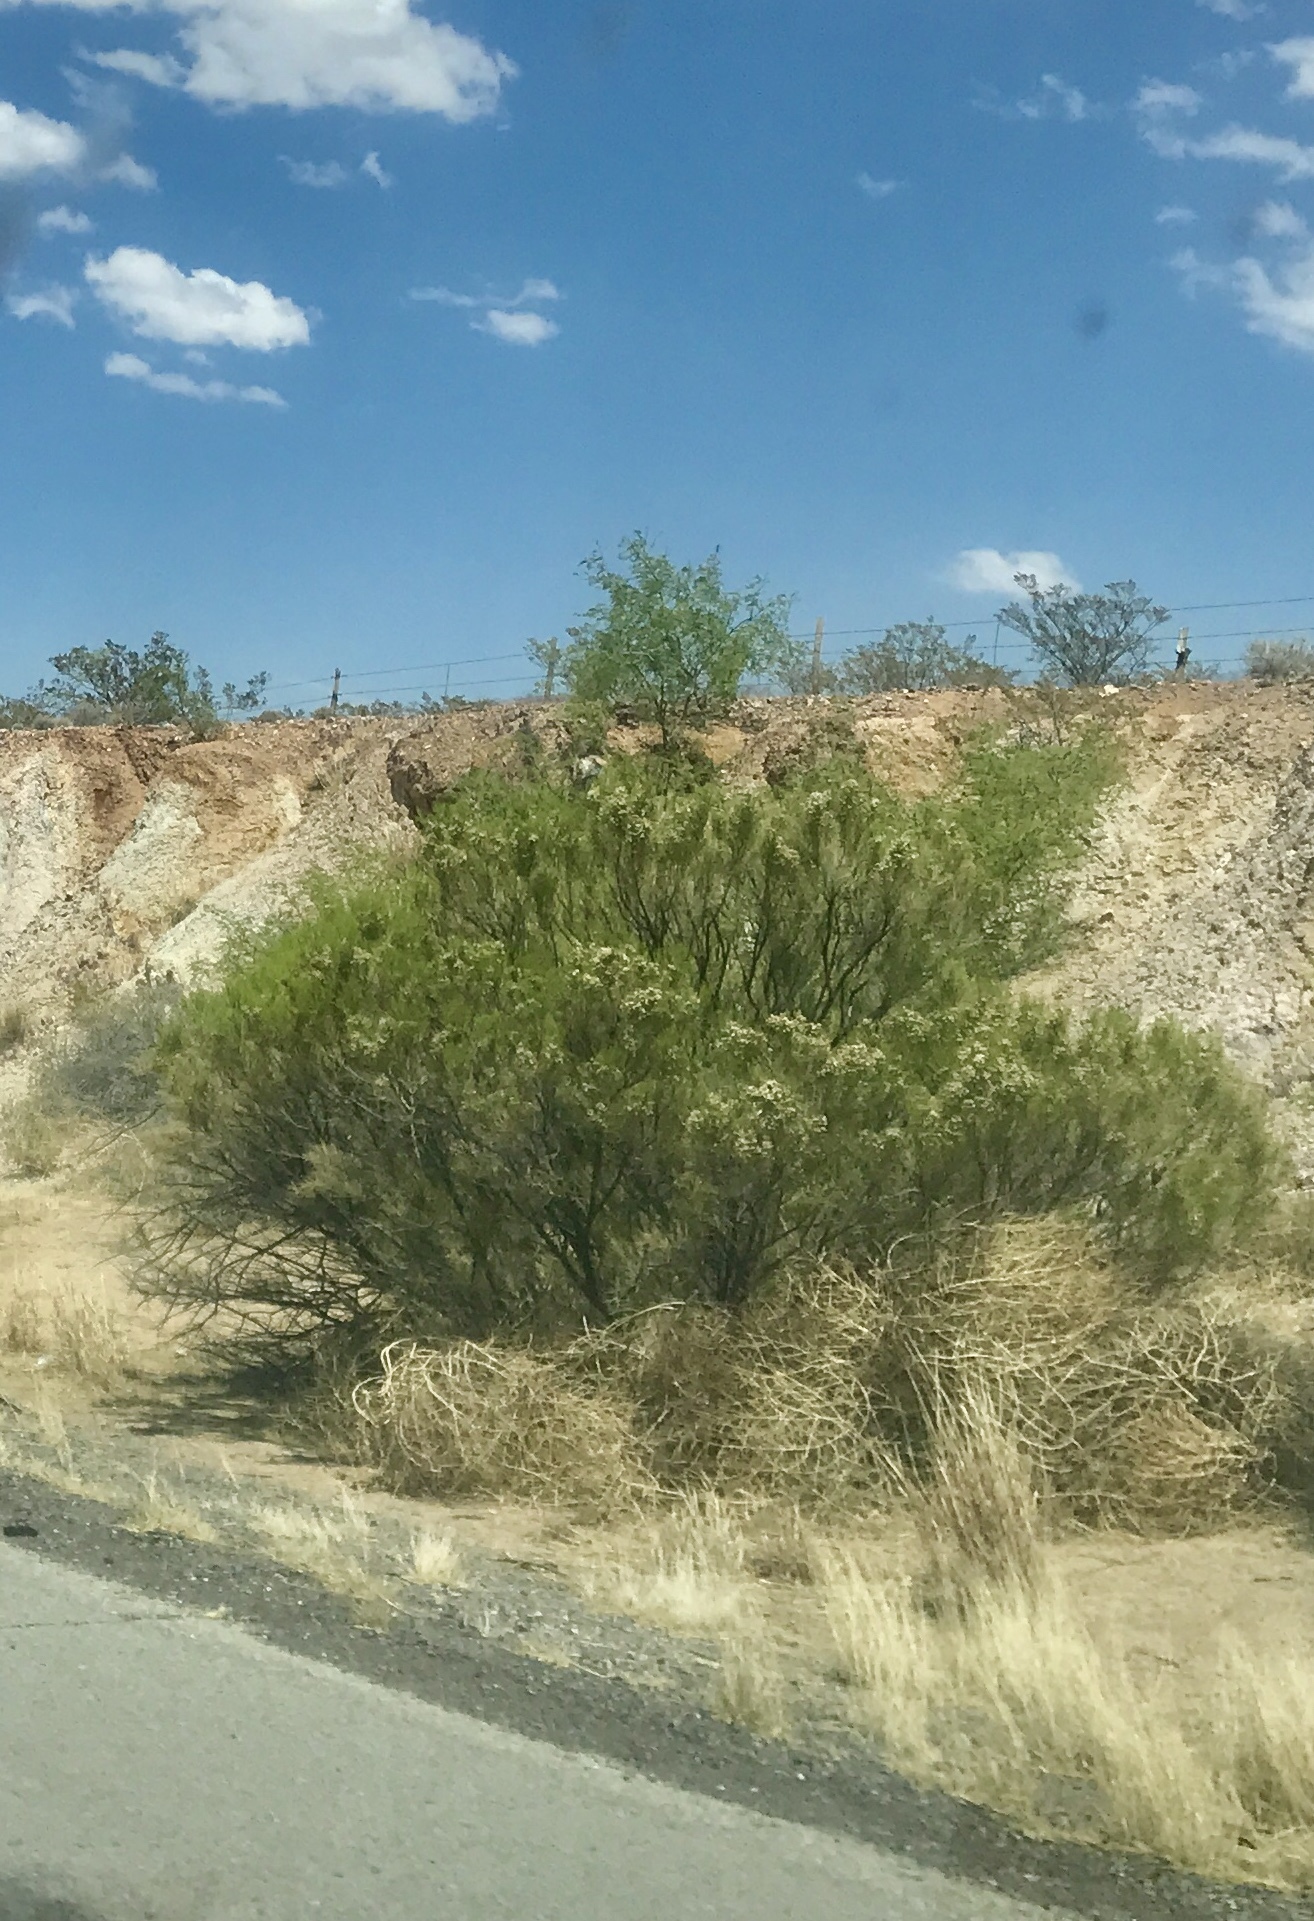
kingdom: Plantae
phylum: Tracheophyta
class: Magnoliopsida
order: Asterales
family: Asteraceae
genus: Baccharis
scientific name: Baccharis sarothroides
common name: Desert-broom
